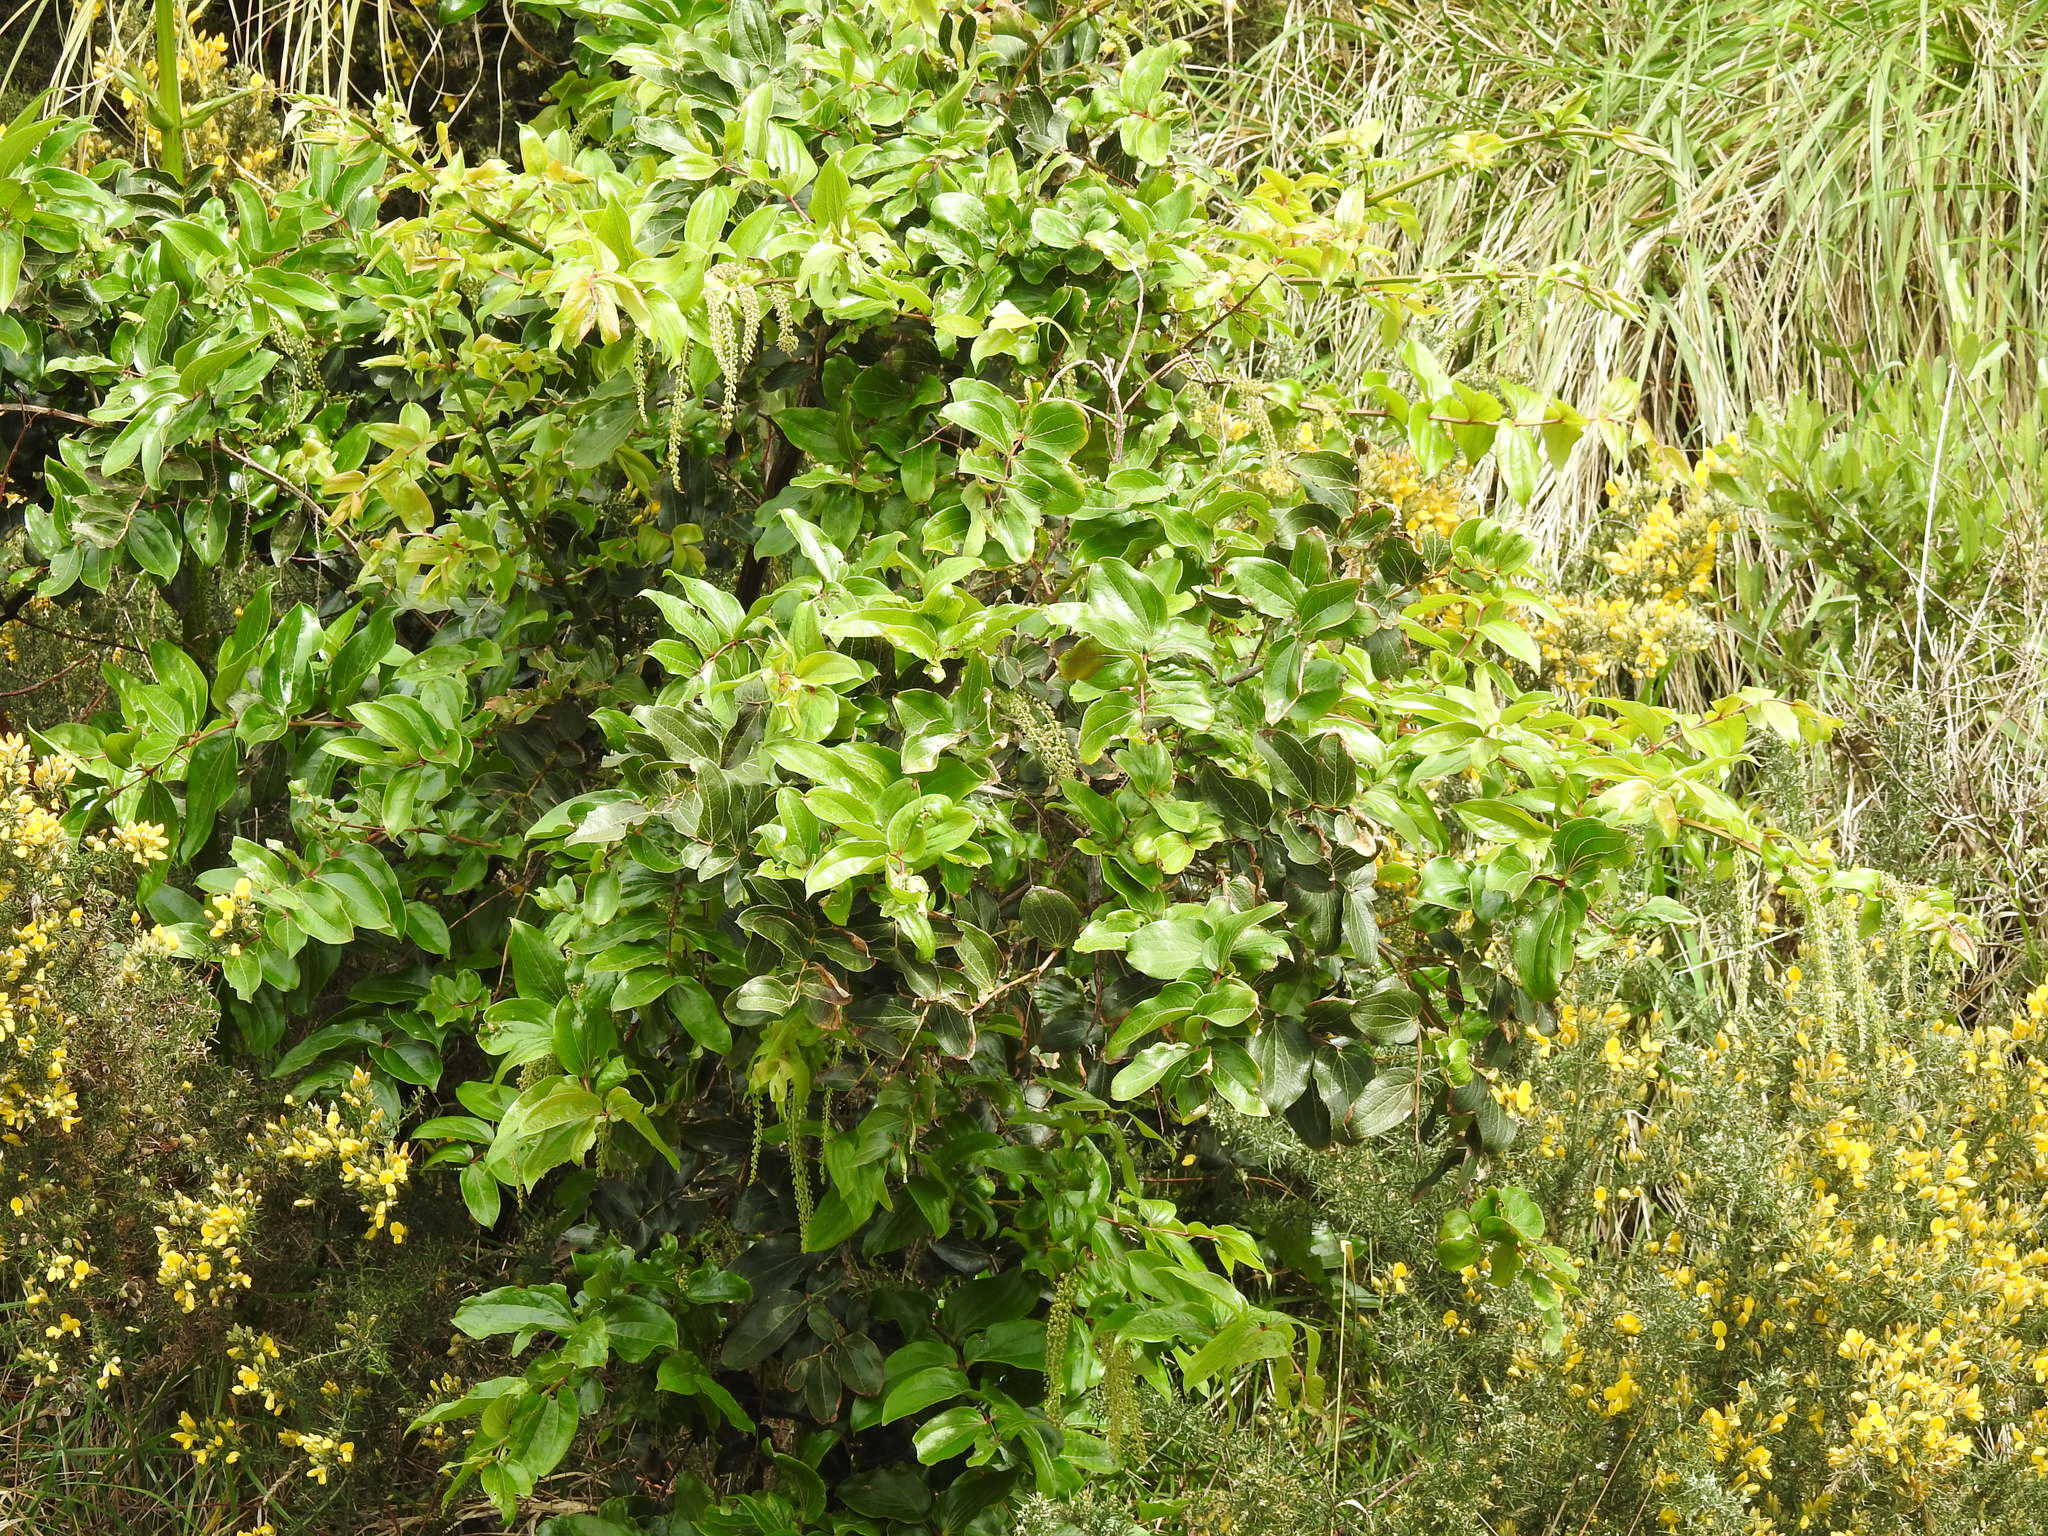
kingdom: Plantae
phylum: Tracheophyta
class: Magnoliopsida
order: Cucurbitales
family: Coriariaceae
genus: Coriaria
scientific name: Coriaria arborea
